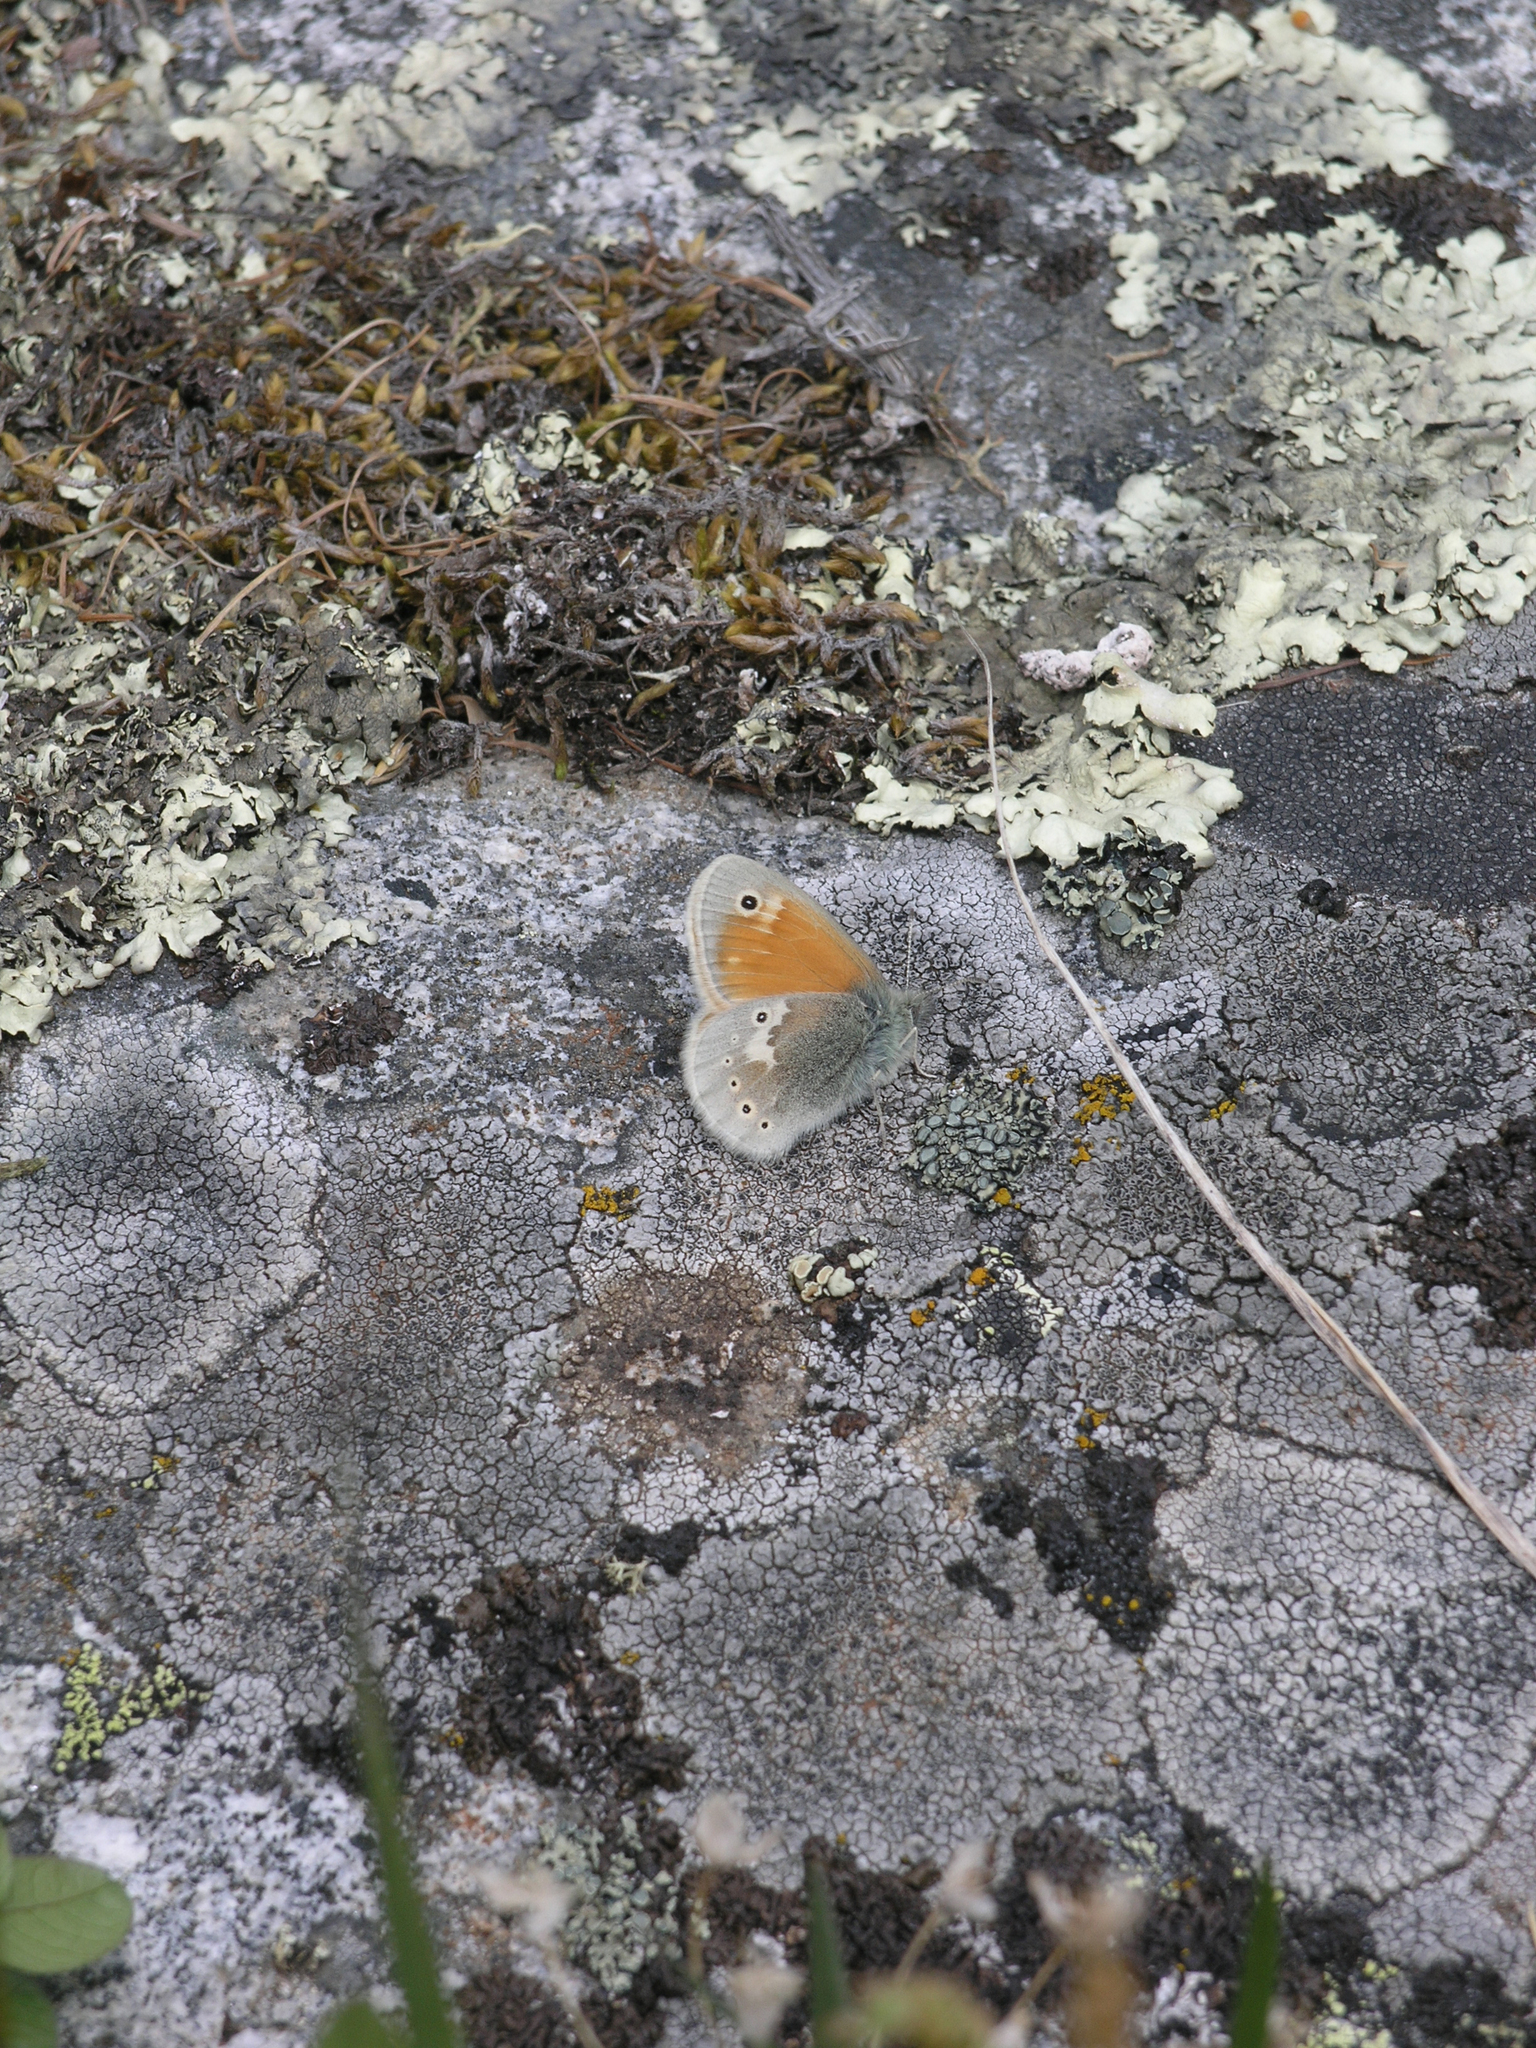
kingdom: Animalia
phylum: Arthropoda
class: Insecta
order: Lepidoptera
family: Nymphalidae
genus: Coenonympha
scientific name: Coenonympha tullia
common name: Large heath
